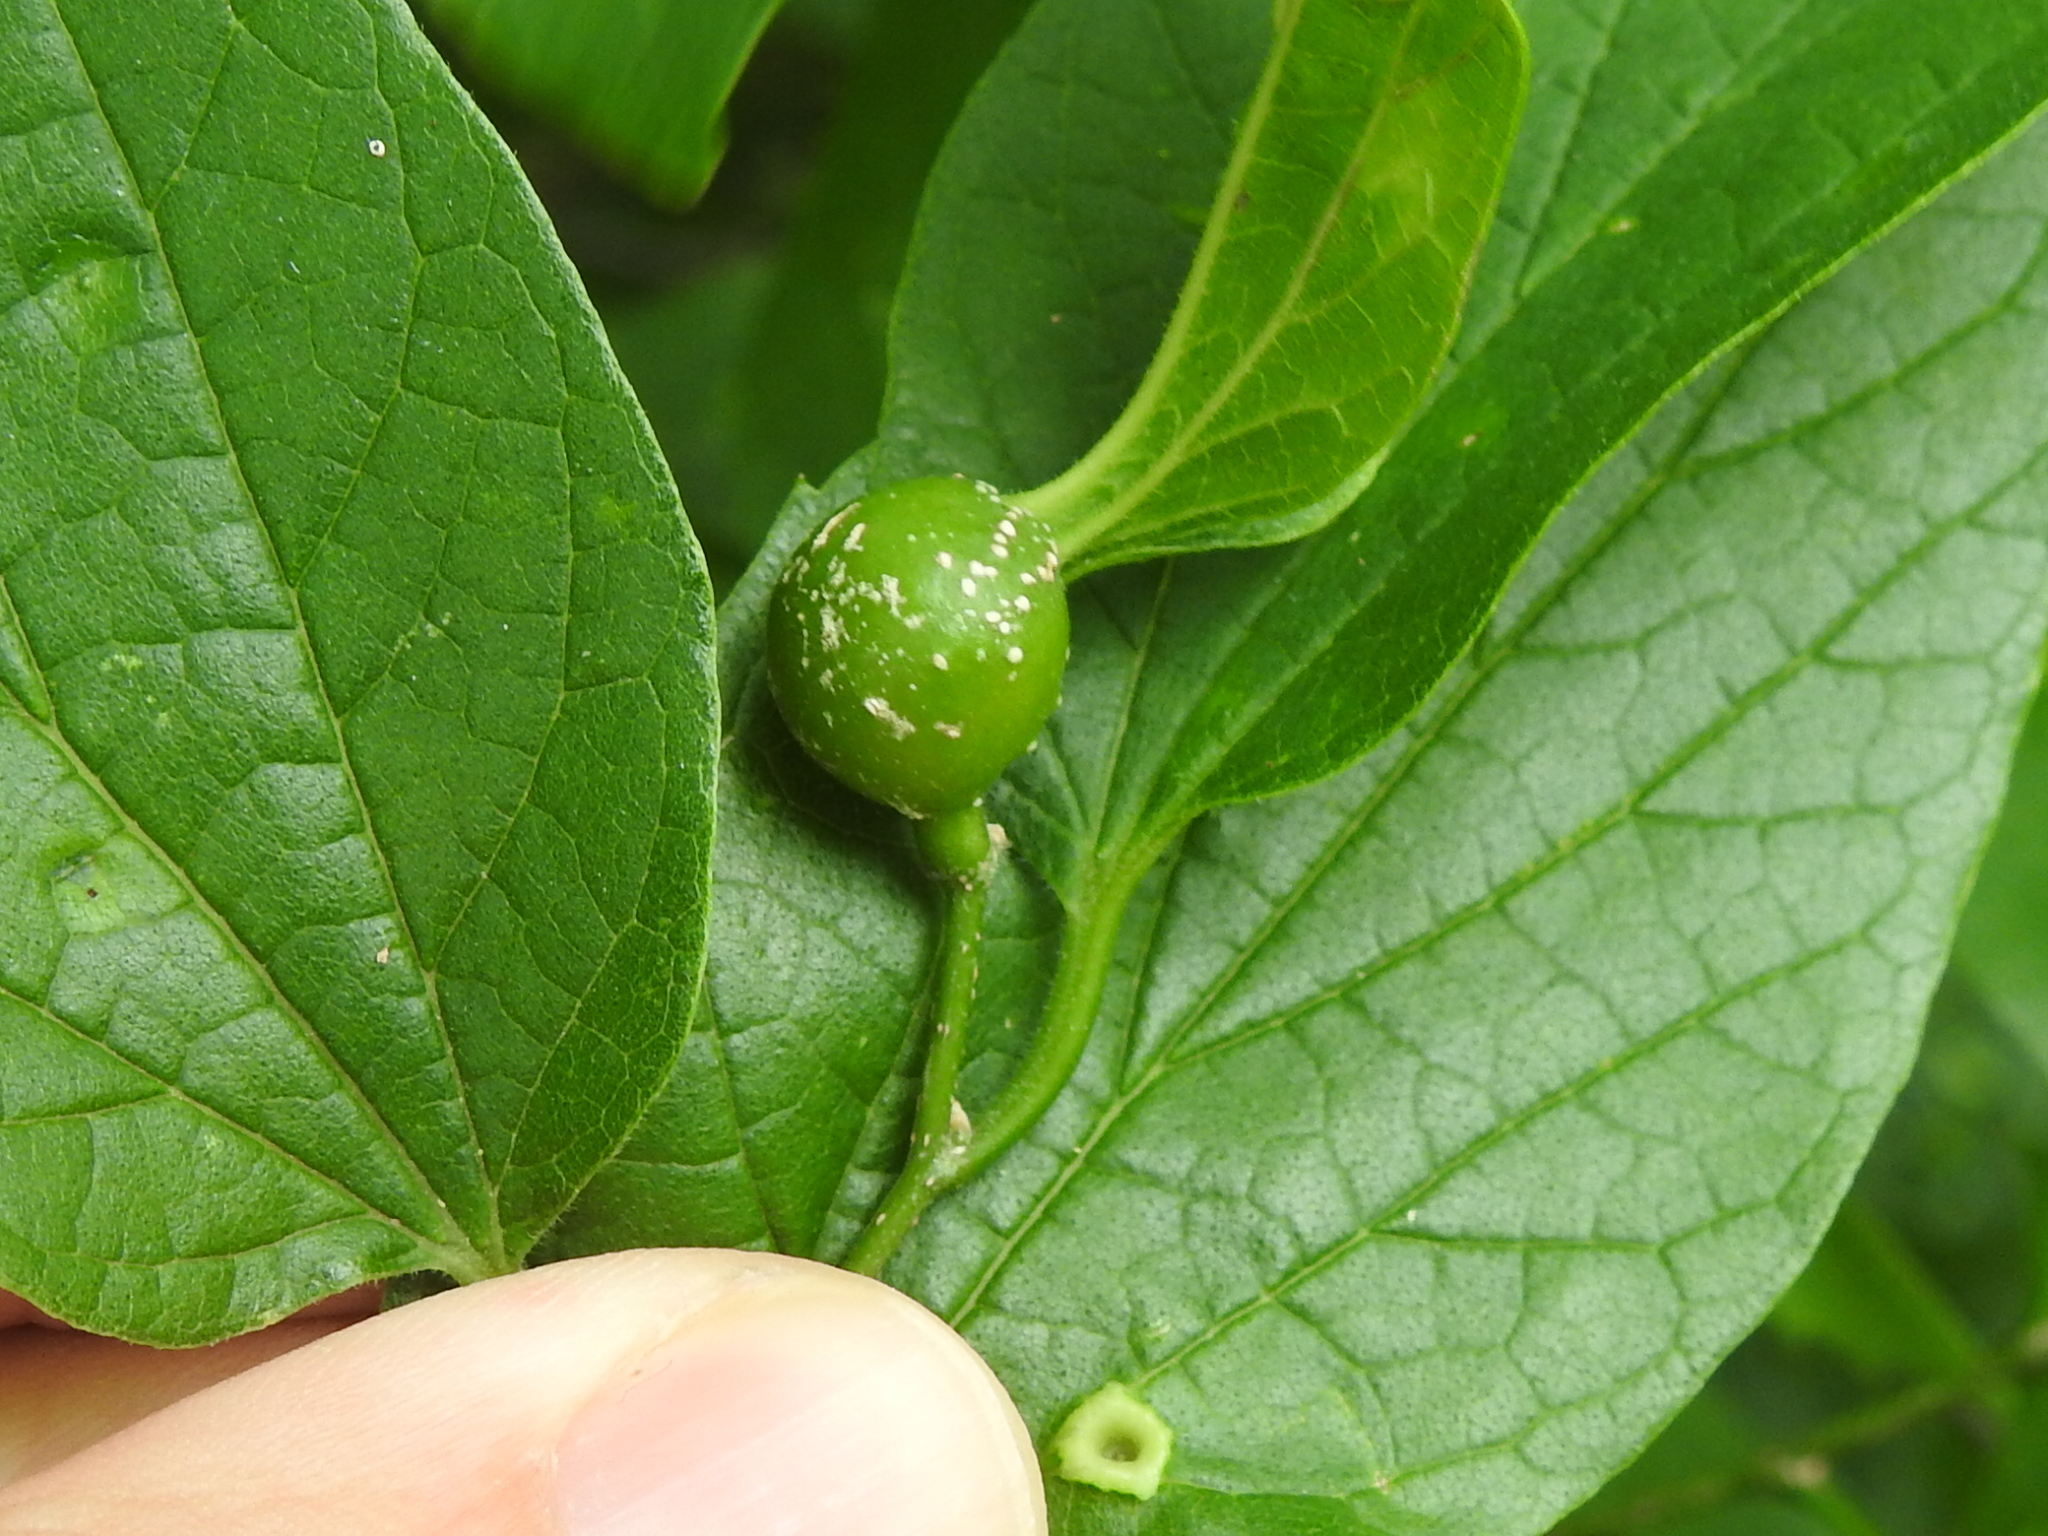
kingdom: Animalia
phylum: Arthropoda
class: Insecta
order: Hemiptera
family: Aphalaridae
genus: Pachypsylla
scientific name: Pachypsylla venusta
